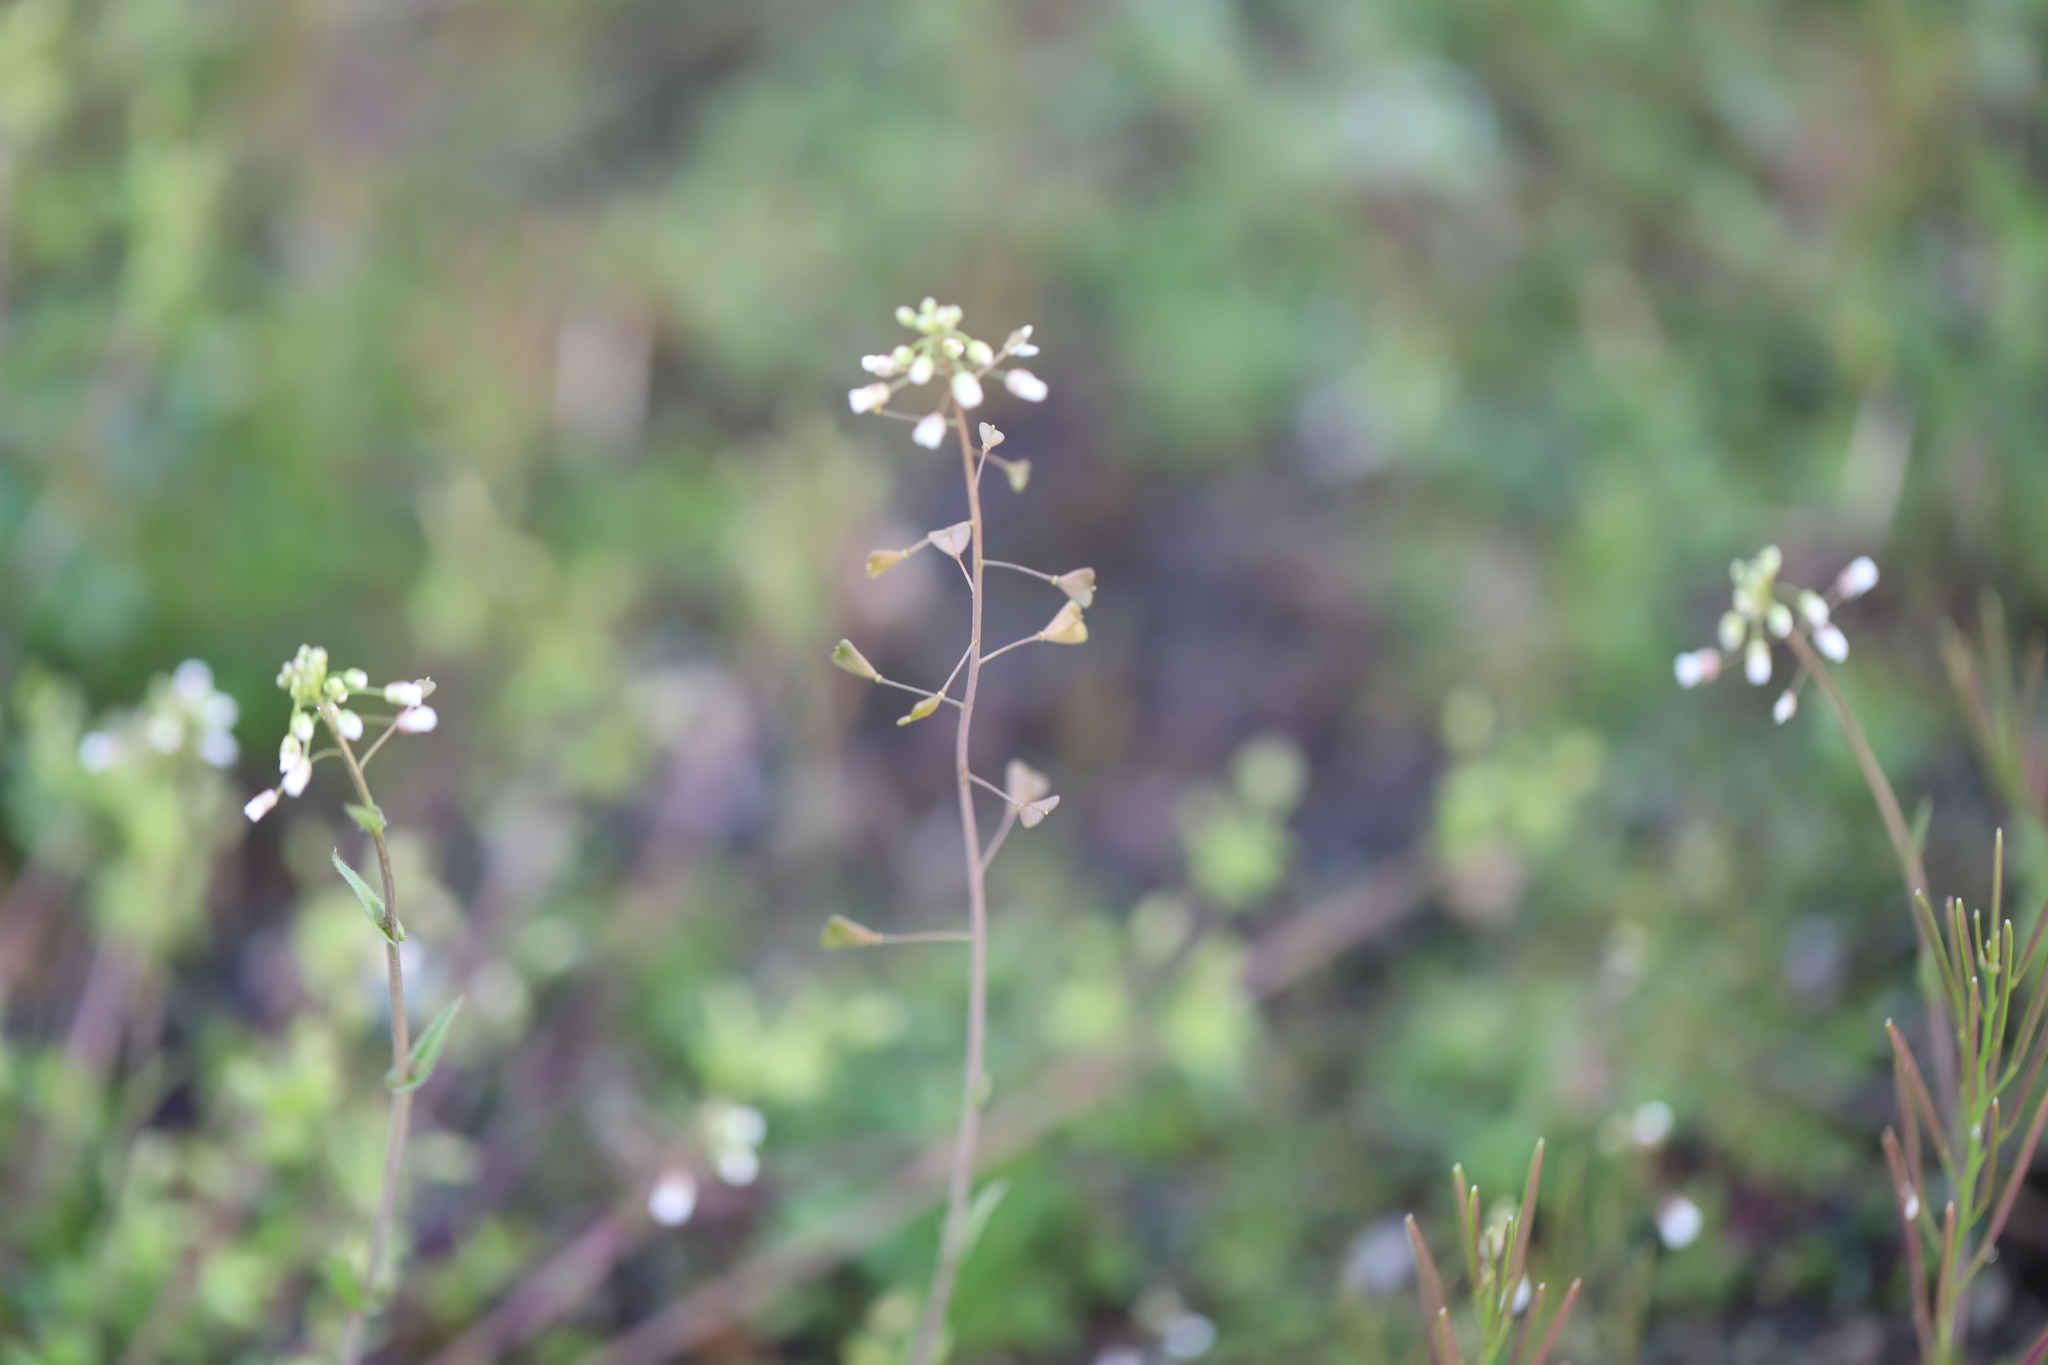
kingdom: Plantae
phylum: Tracheophyta
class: Magnoliopsida
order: Brassicales
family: Brassicaceae
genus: Capsella
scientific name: Capsella bursa-pastoris
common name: Shepherd's purse
